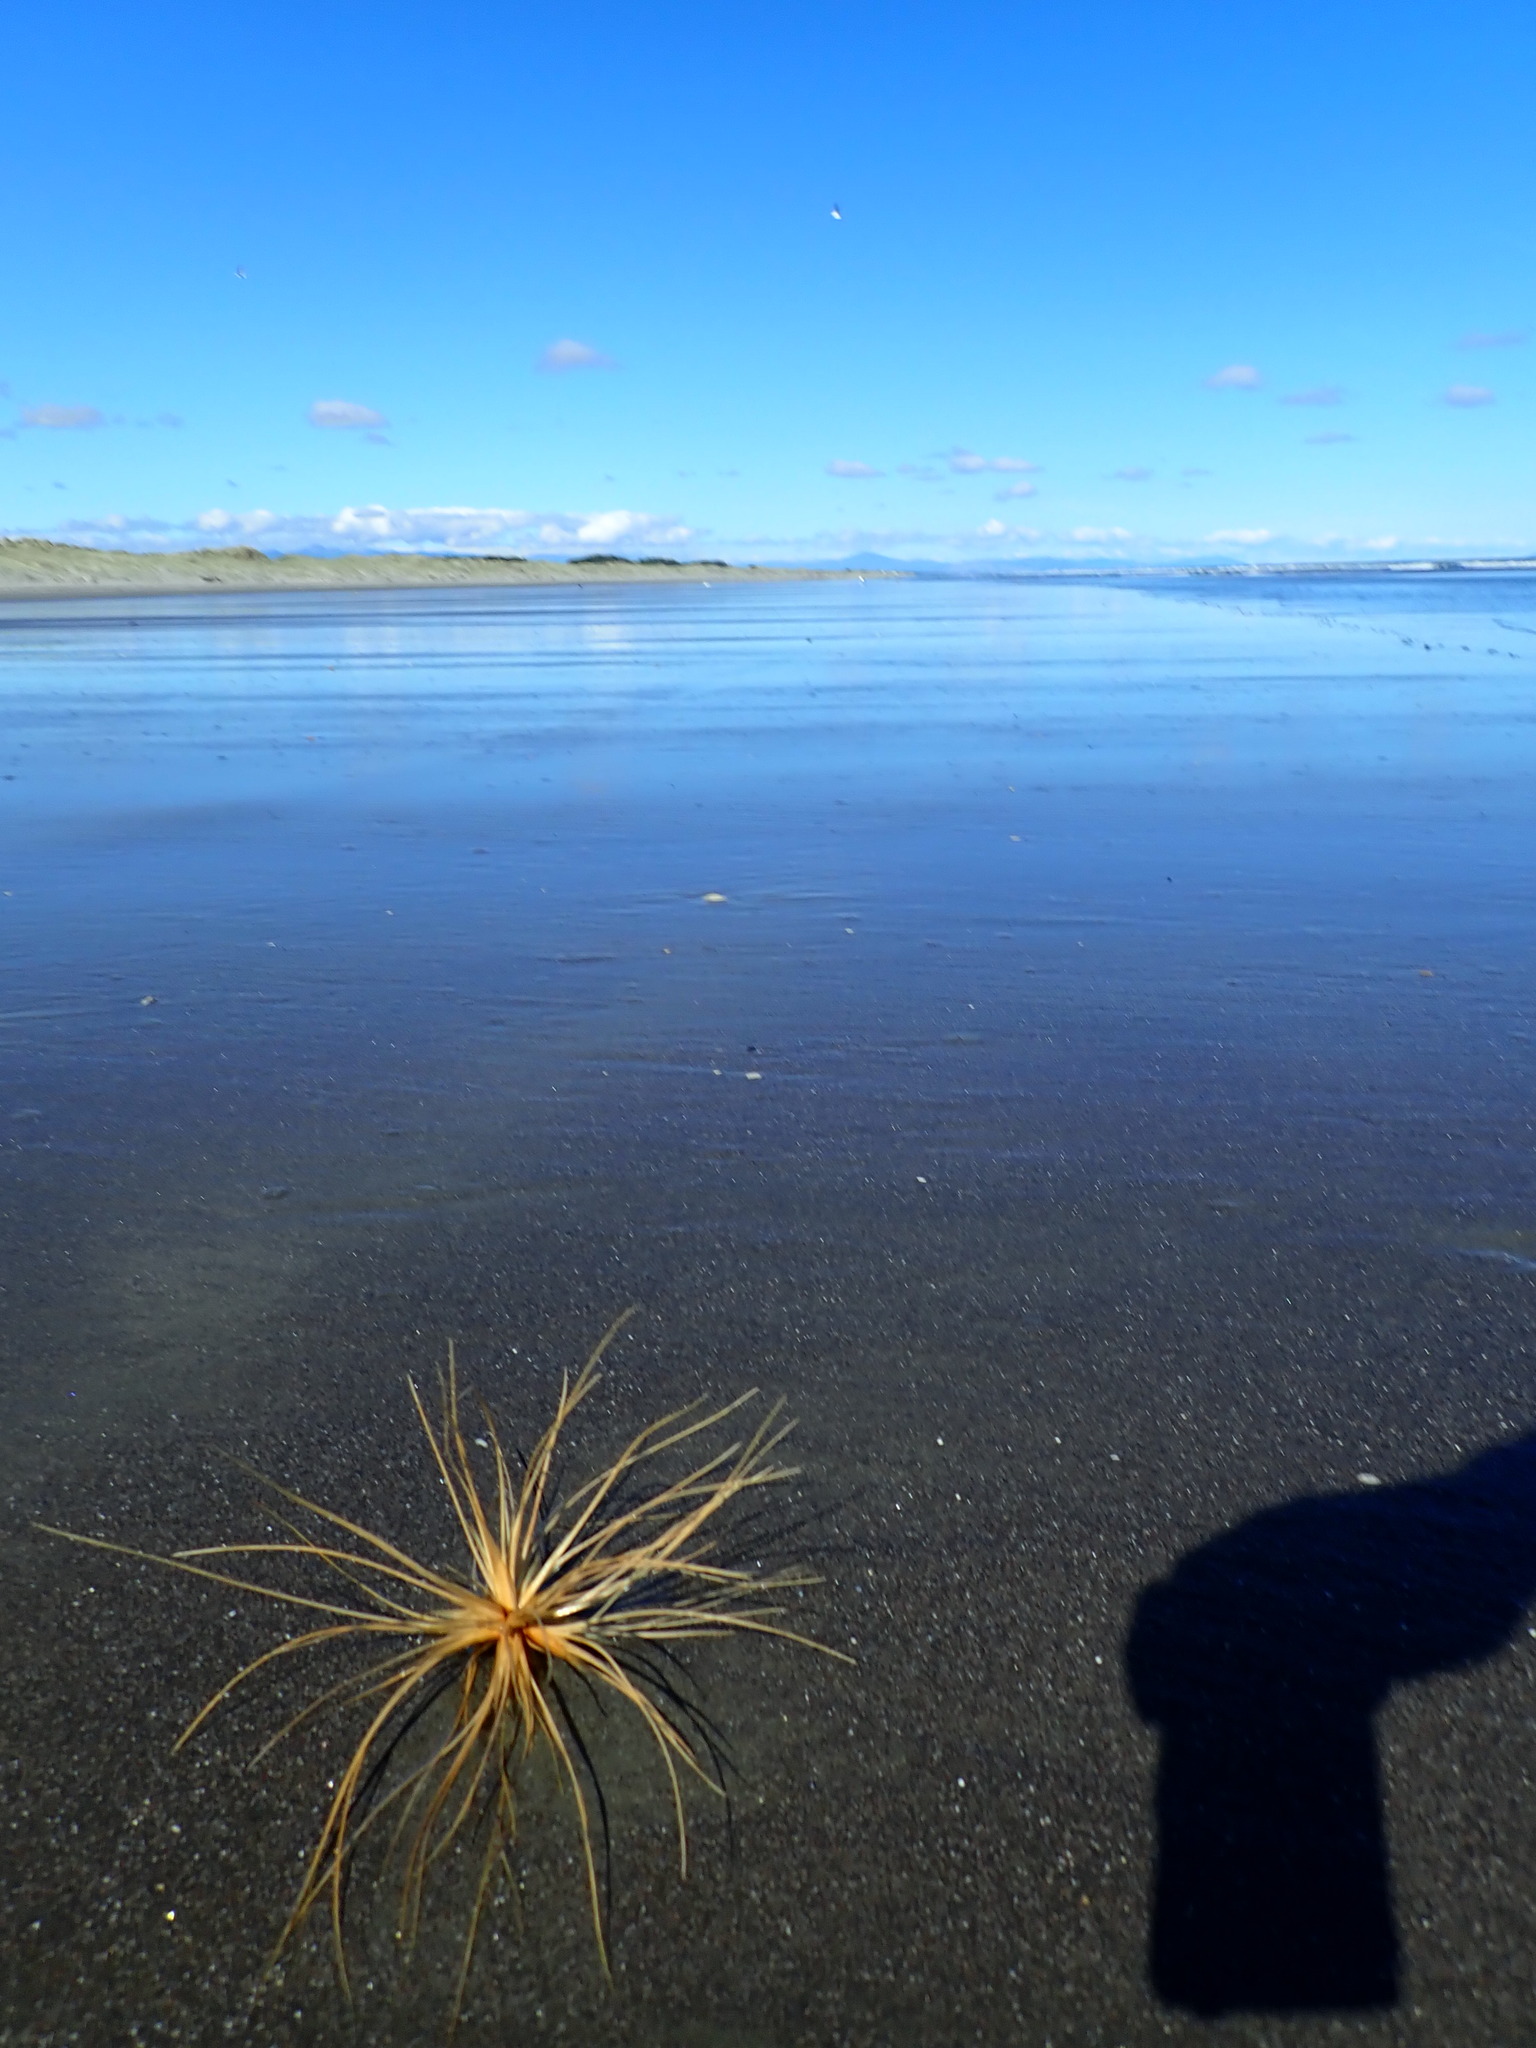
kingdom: Plantae
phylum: Tracheophyta
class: Liliopsida
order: Poales
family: Poaceae
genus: Spinifex
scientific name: Spinifex sericeus
